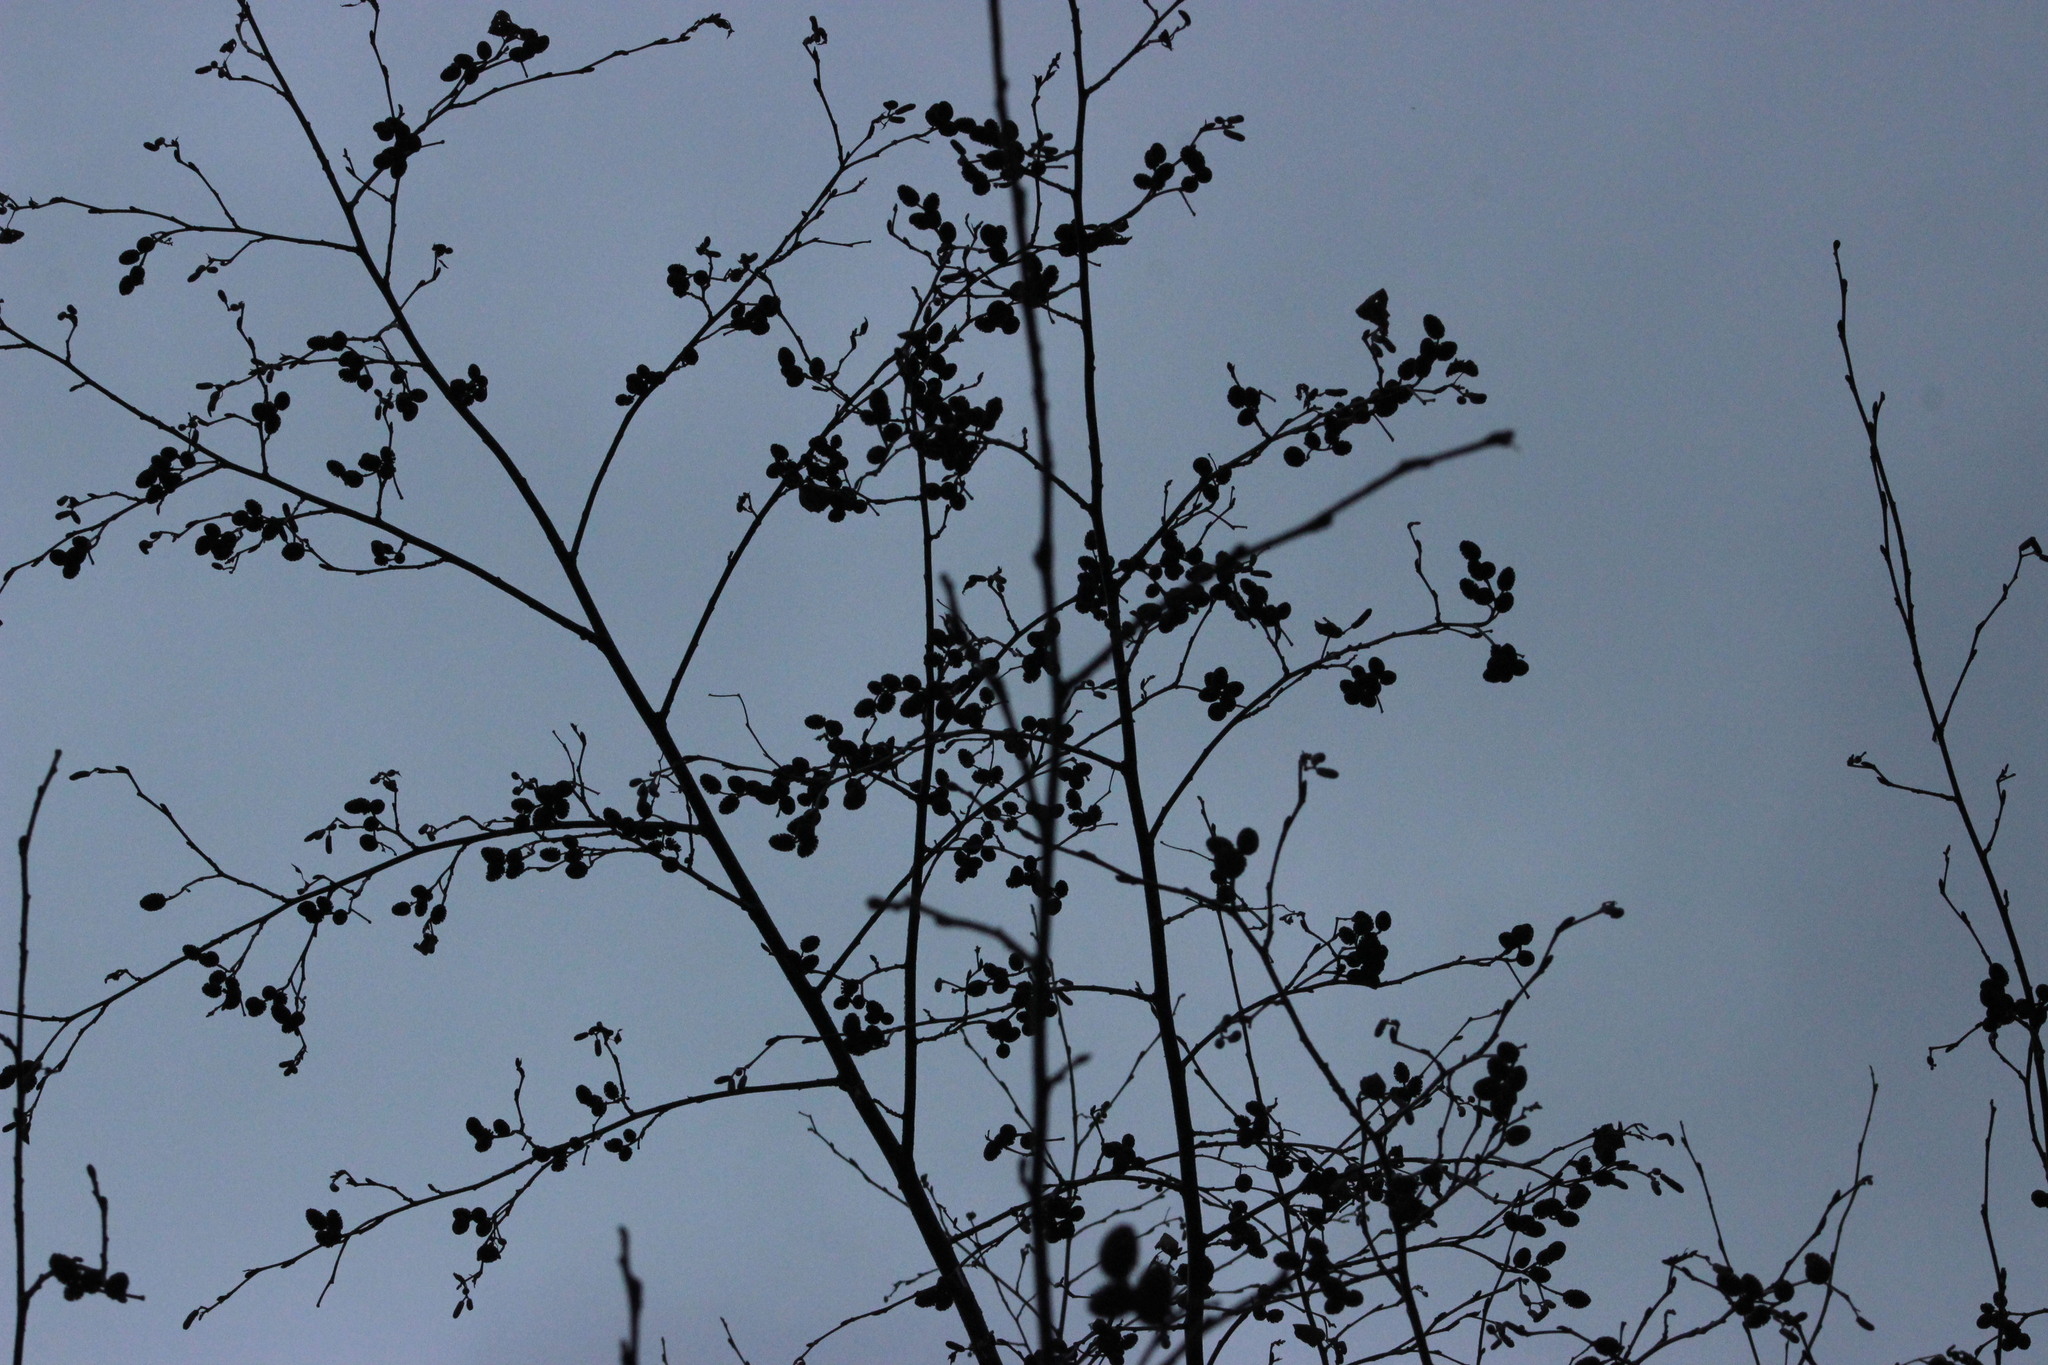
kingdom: Plantae
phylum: Tracheophyta
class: Magnoliopsida
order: Fagales
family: Betulaceae
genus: Alnus
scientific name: Alnus incana
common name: Grey alder
